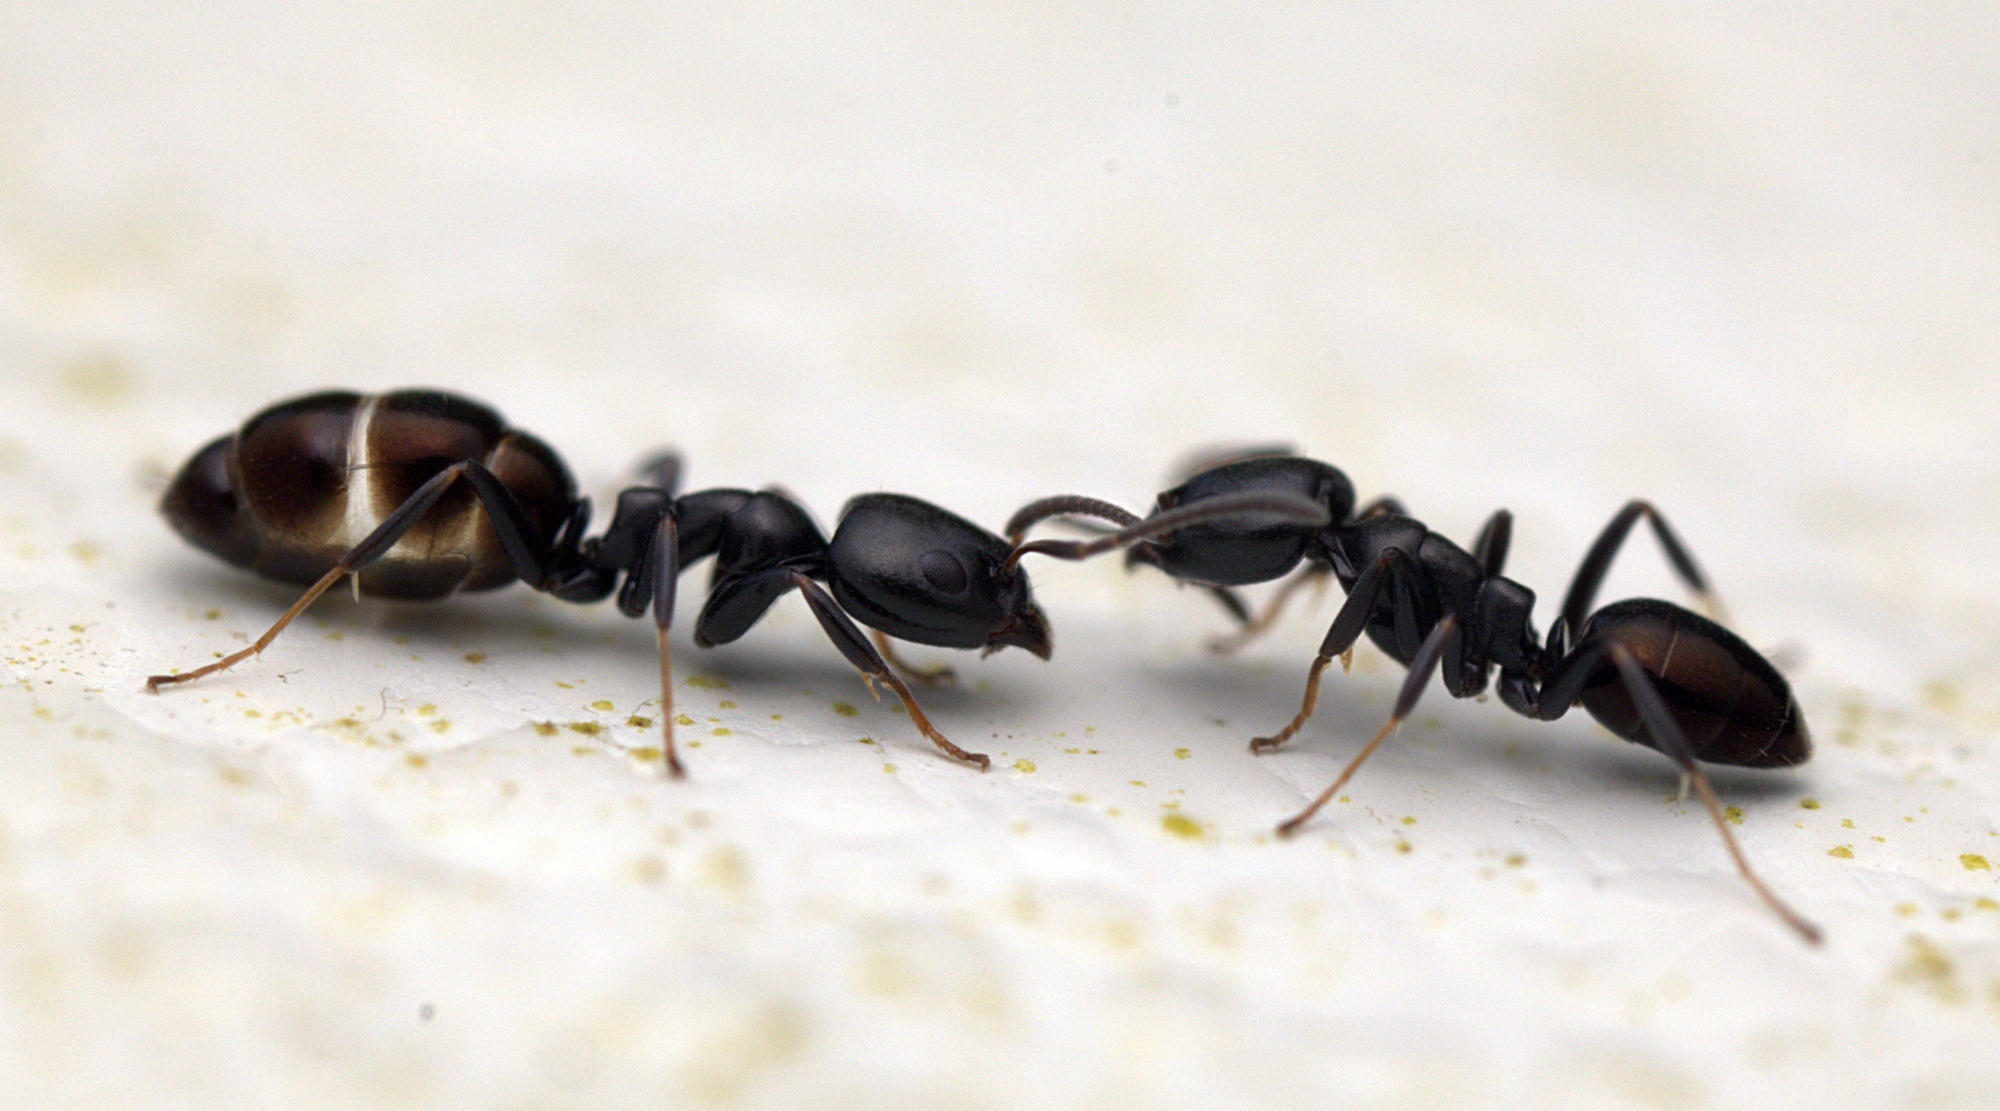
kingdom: Animalia
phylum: Arthropoda
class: Insecta
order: Hymenoptera
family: Formicidae
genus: Ochetellus
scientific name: Ochetellus glaber
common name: Ant
